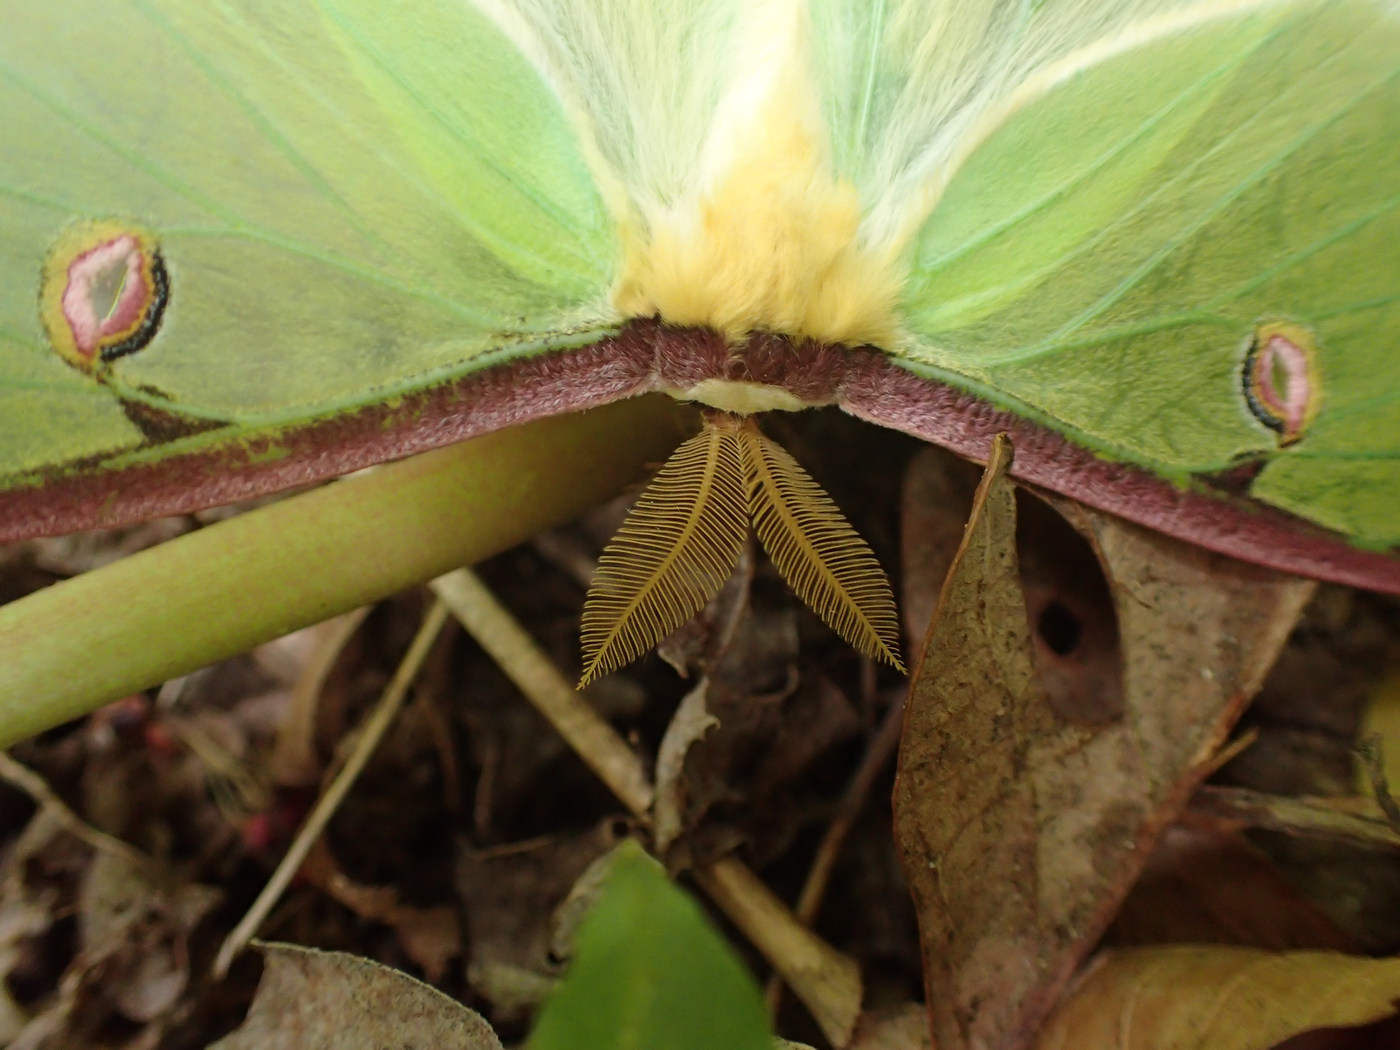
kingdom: Animalia
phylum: Arthropoda
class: Insecta
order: Lepidoptera
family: Saturniidae
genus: Actias
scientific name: Actias luna
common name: Luna moth
